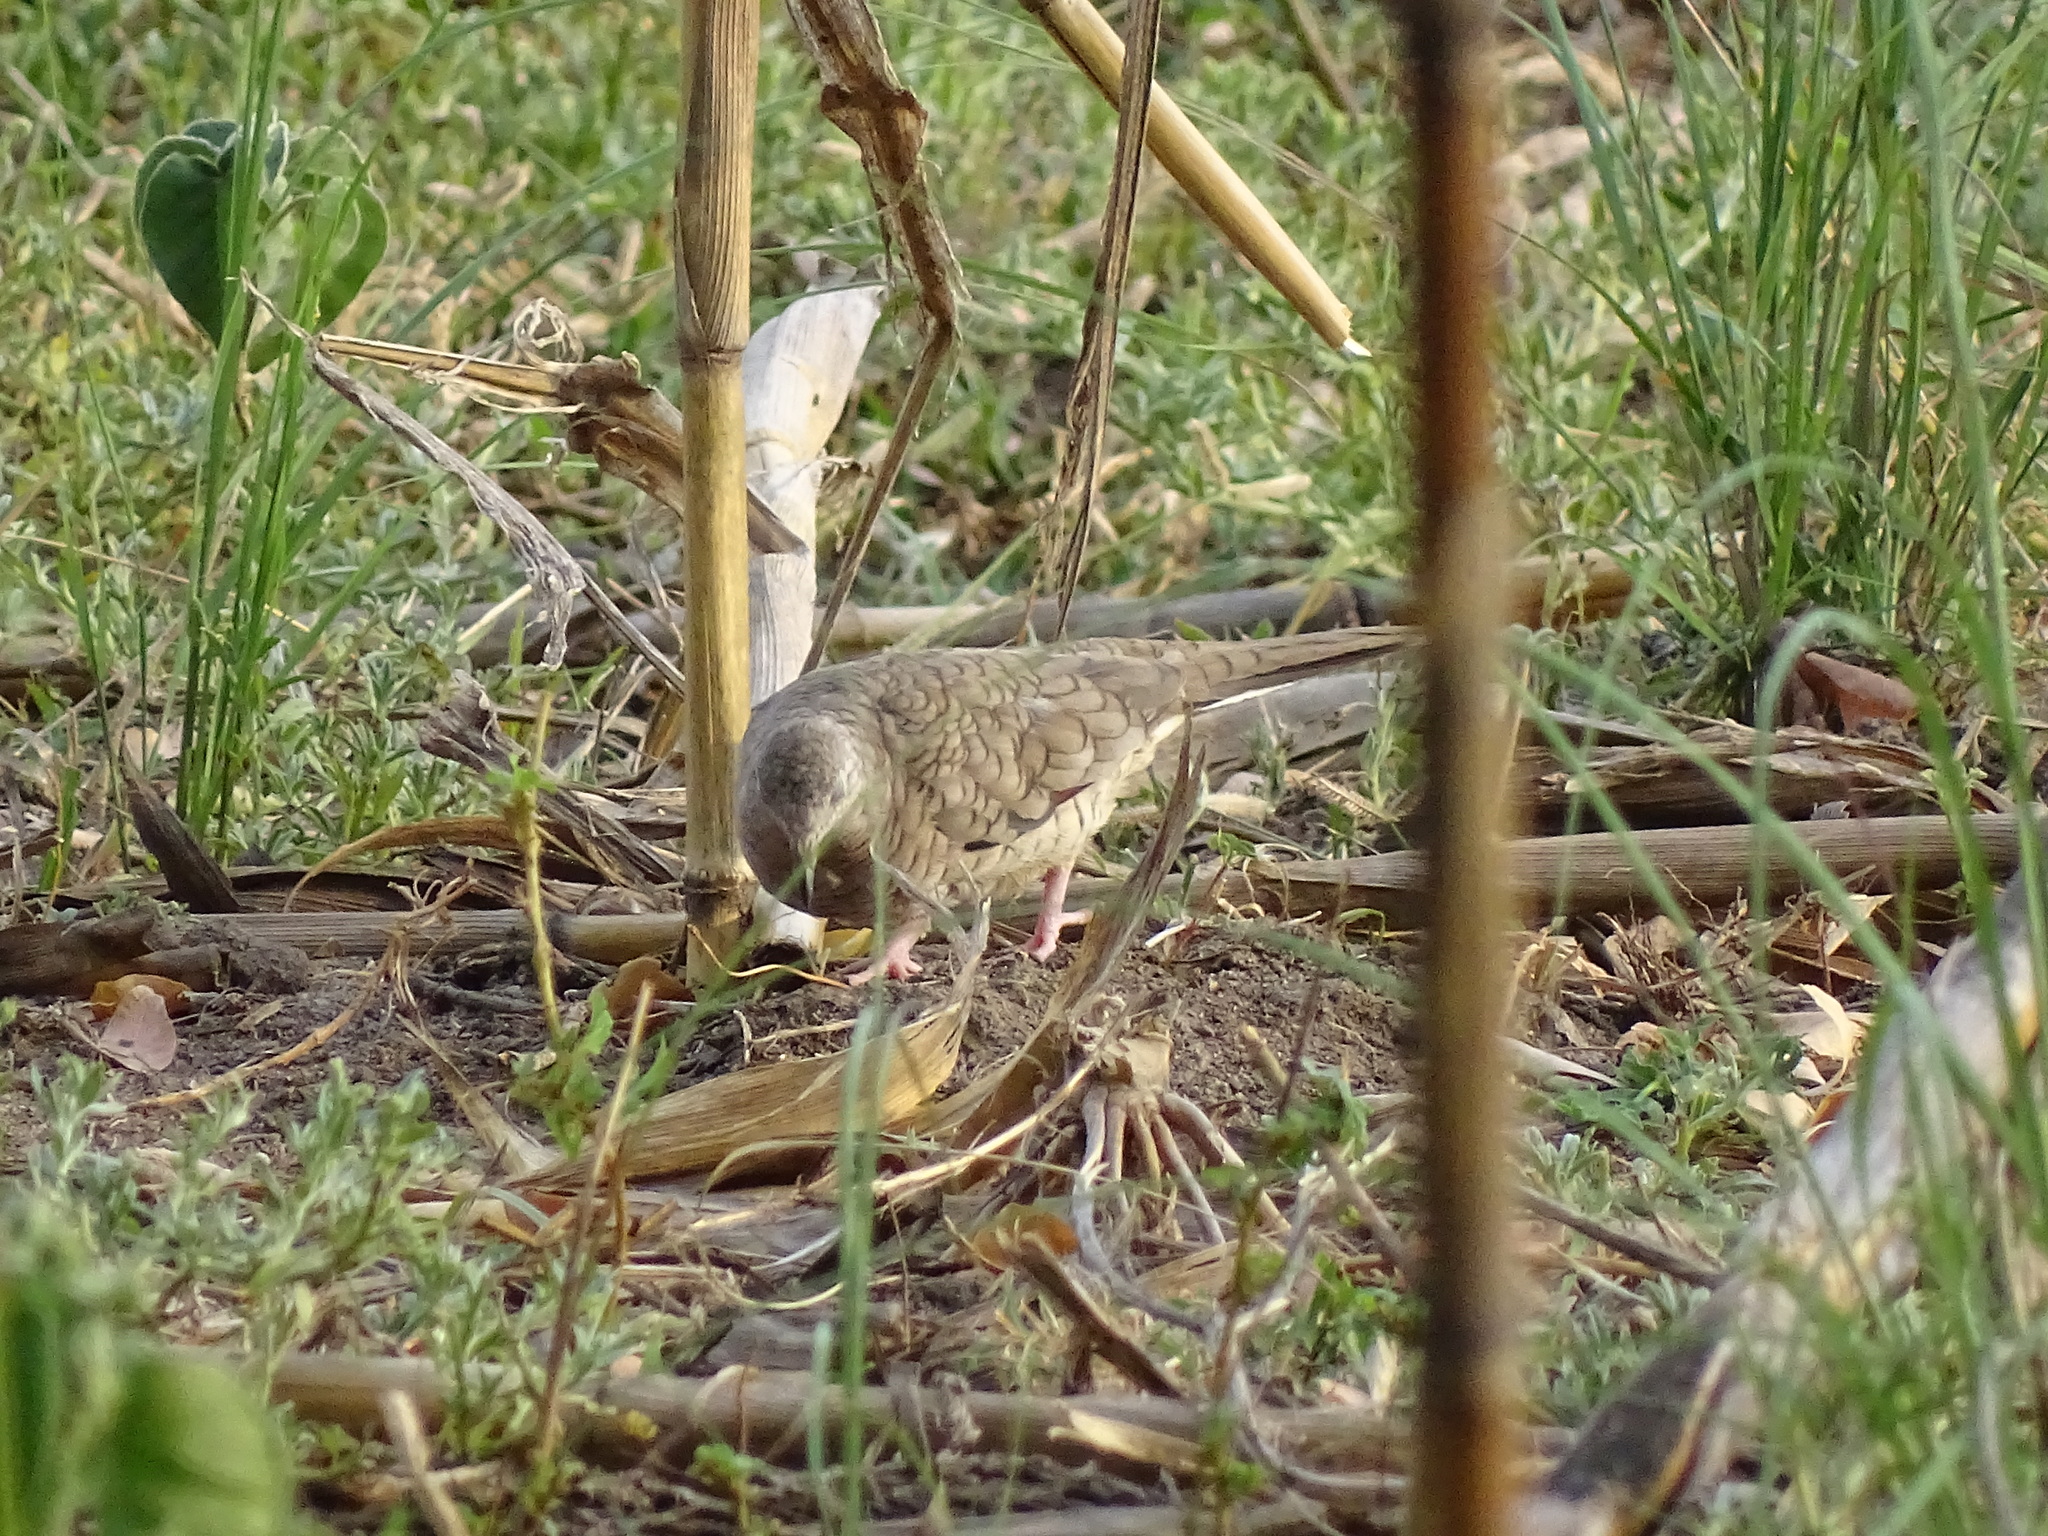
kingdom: Animalia
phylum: Chordata
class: Aves
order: Columbiformes
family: Columbidae
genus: Columbina
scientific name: Columbina inca
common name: Inca dove
